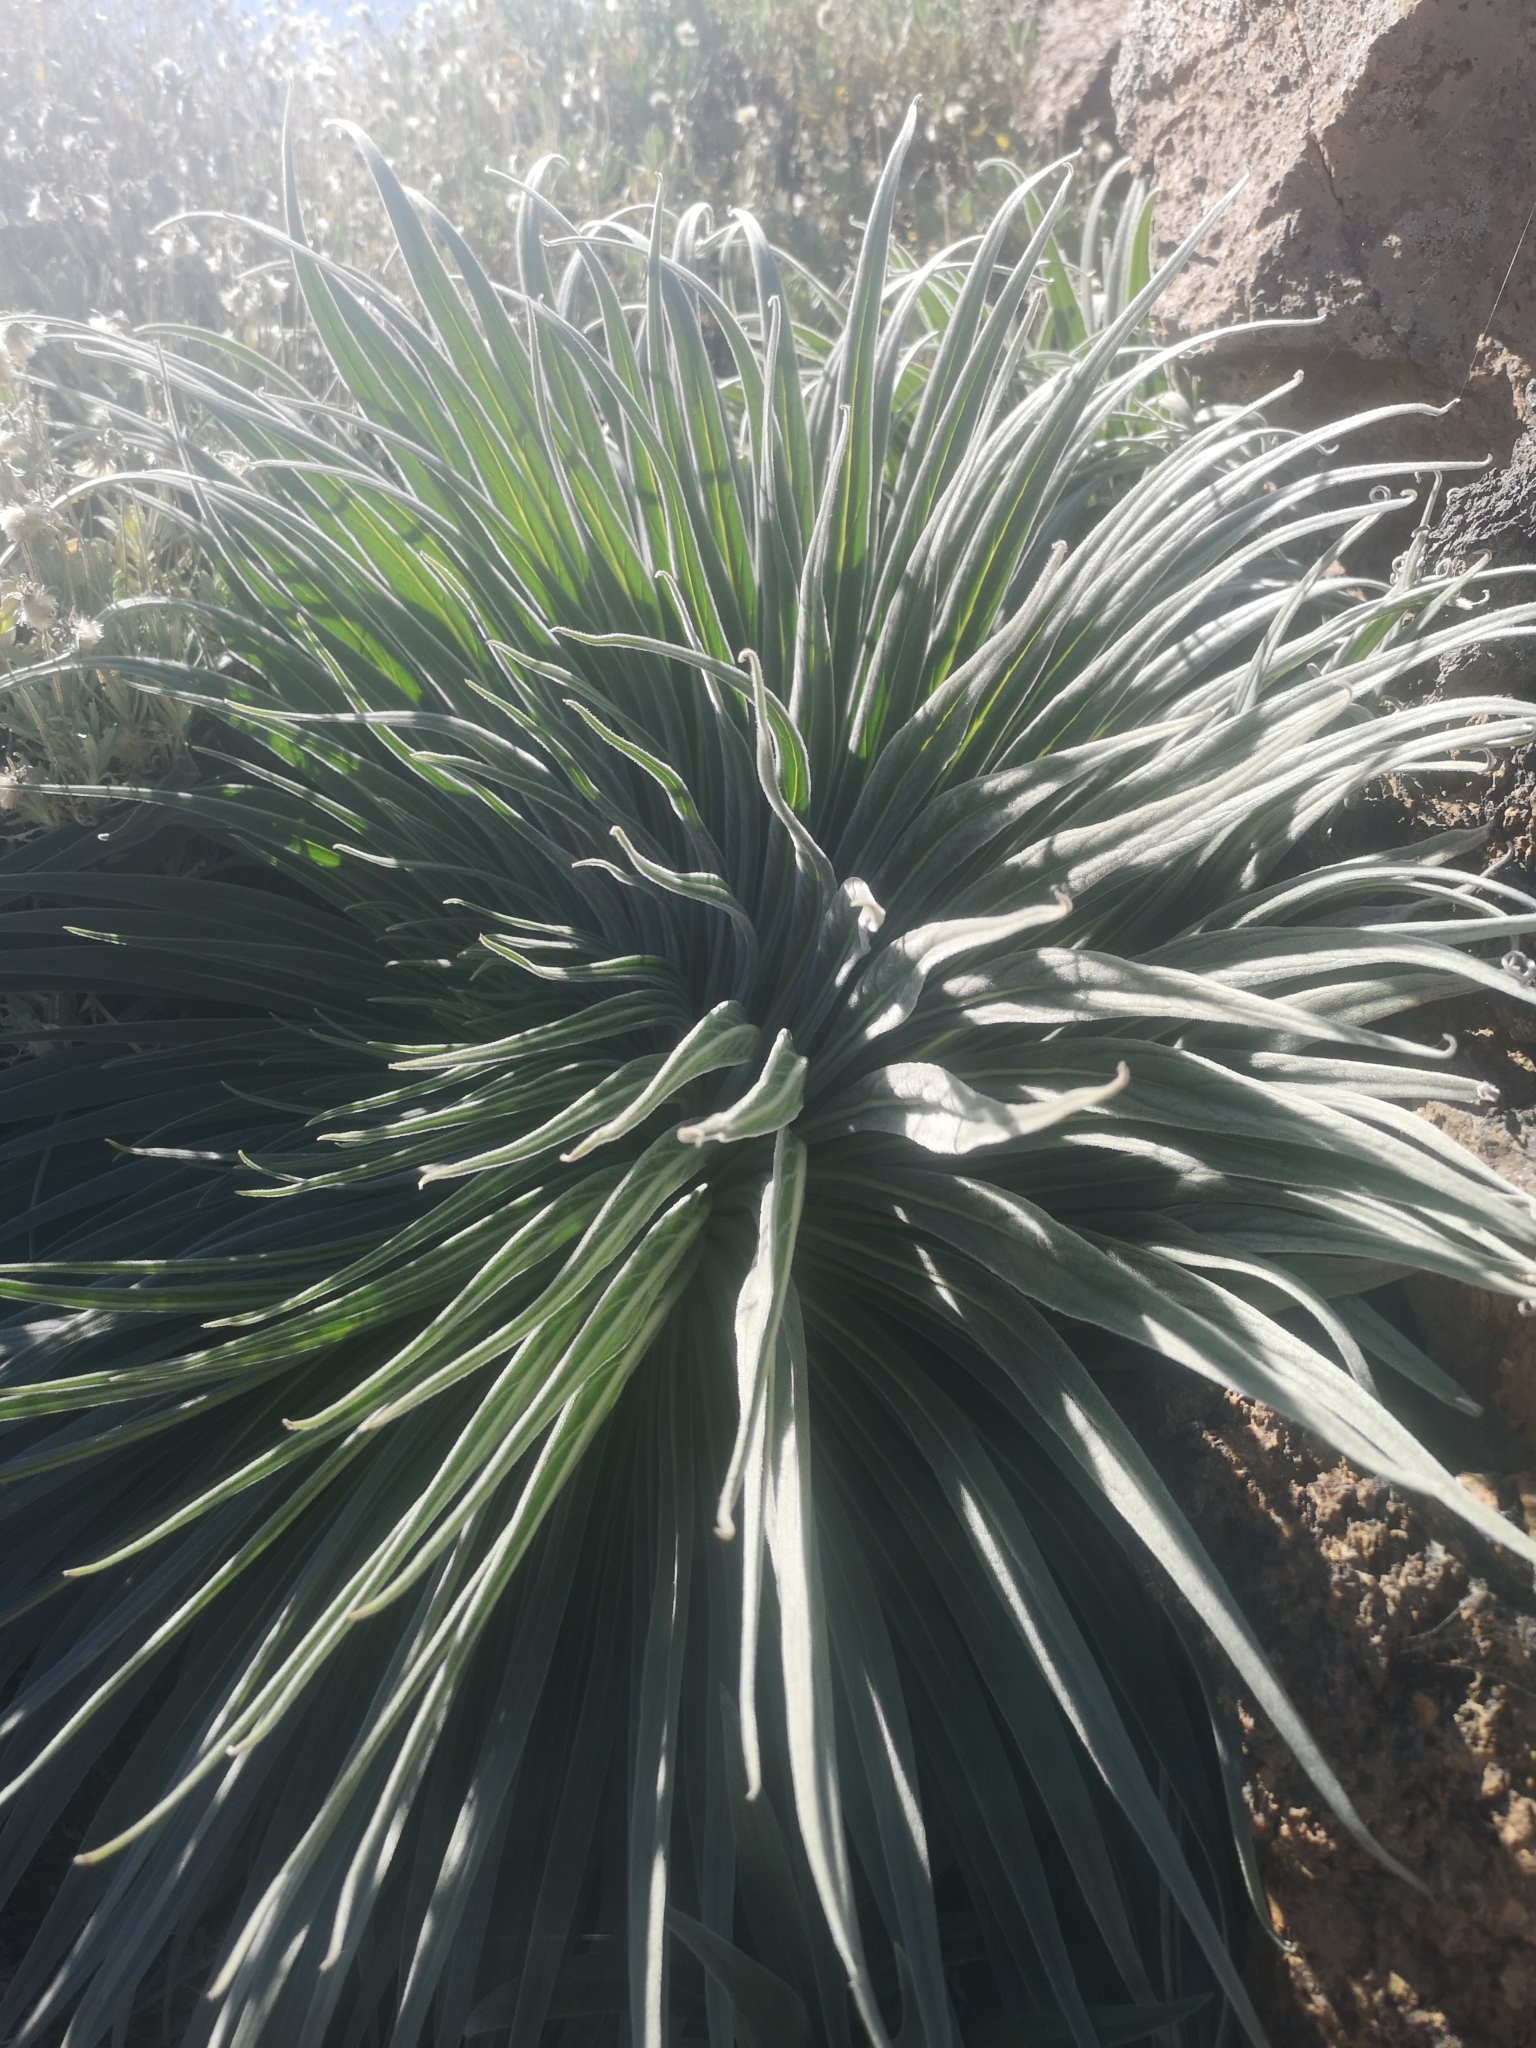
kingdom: Plantae
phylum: Tracheophyta
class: Magnoliopsida
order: Boraginales
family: Boraginaceae
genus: Echium
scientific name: Echium wildpretii
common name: Tower-of-jewels
